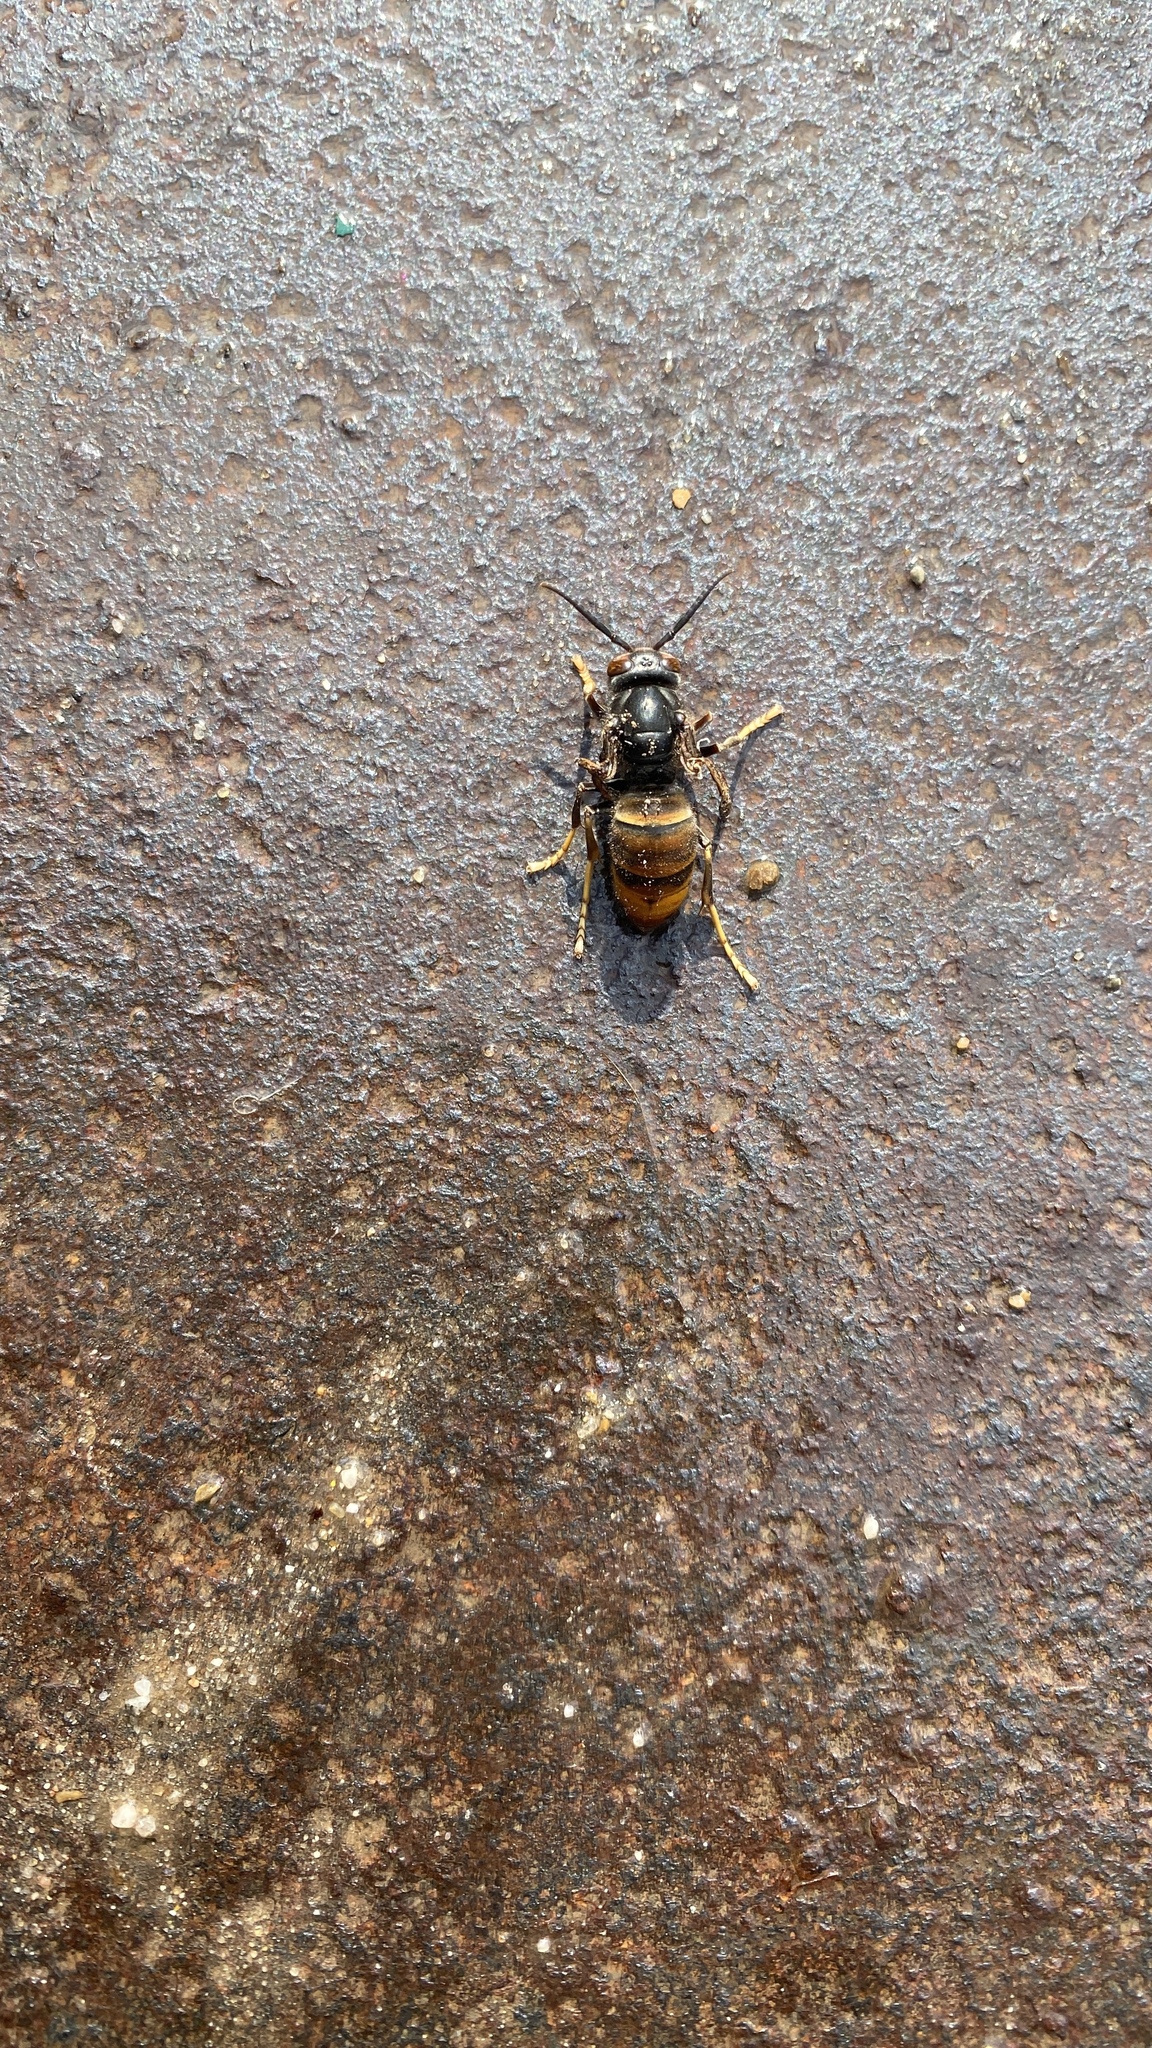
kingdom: Animalia
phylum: Arthropoda
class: Insecta
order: Hymenoptera
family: Vespidae
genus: Vespa
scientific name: Vespa velutina
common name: Asian hornet
